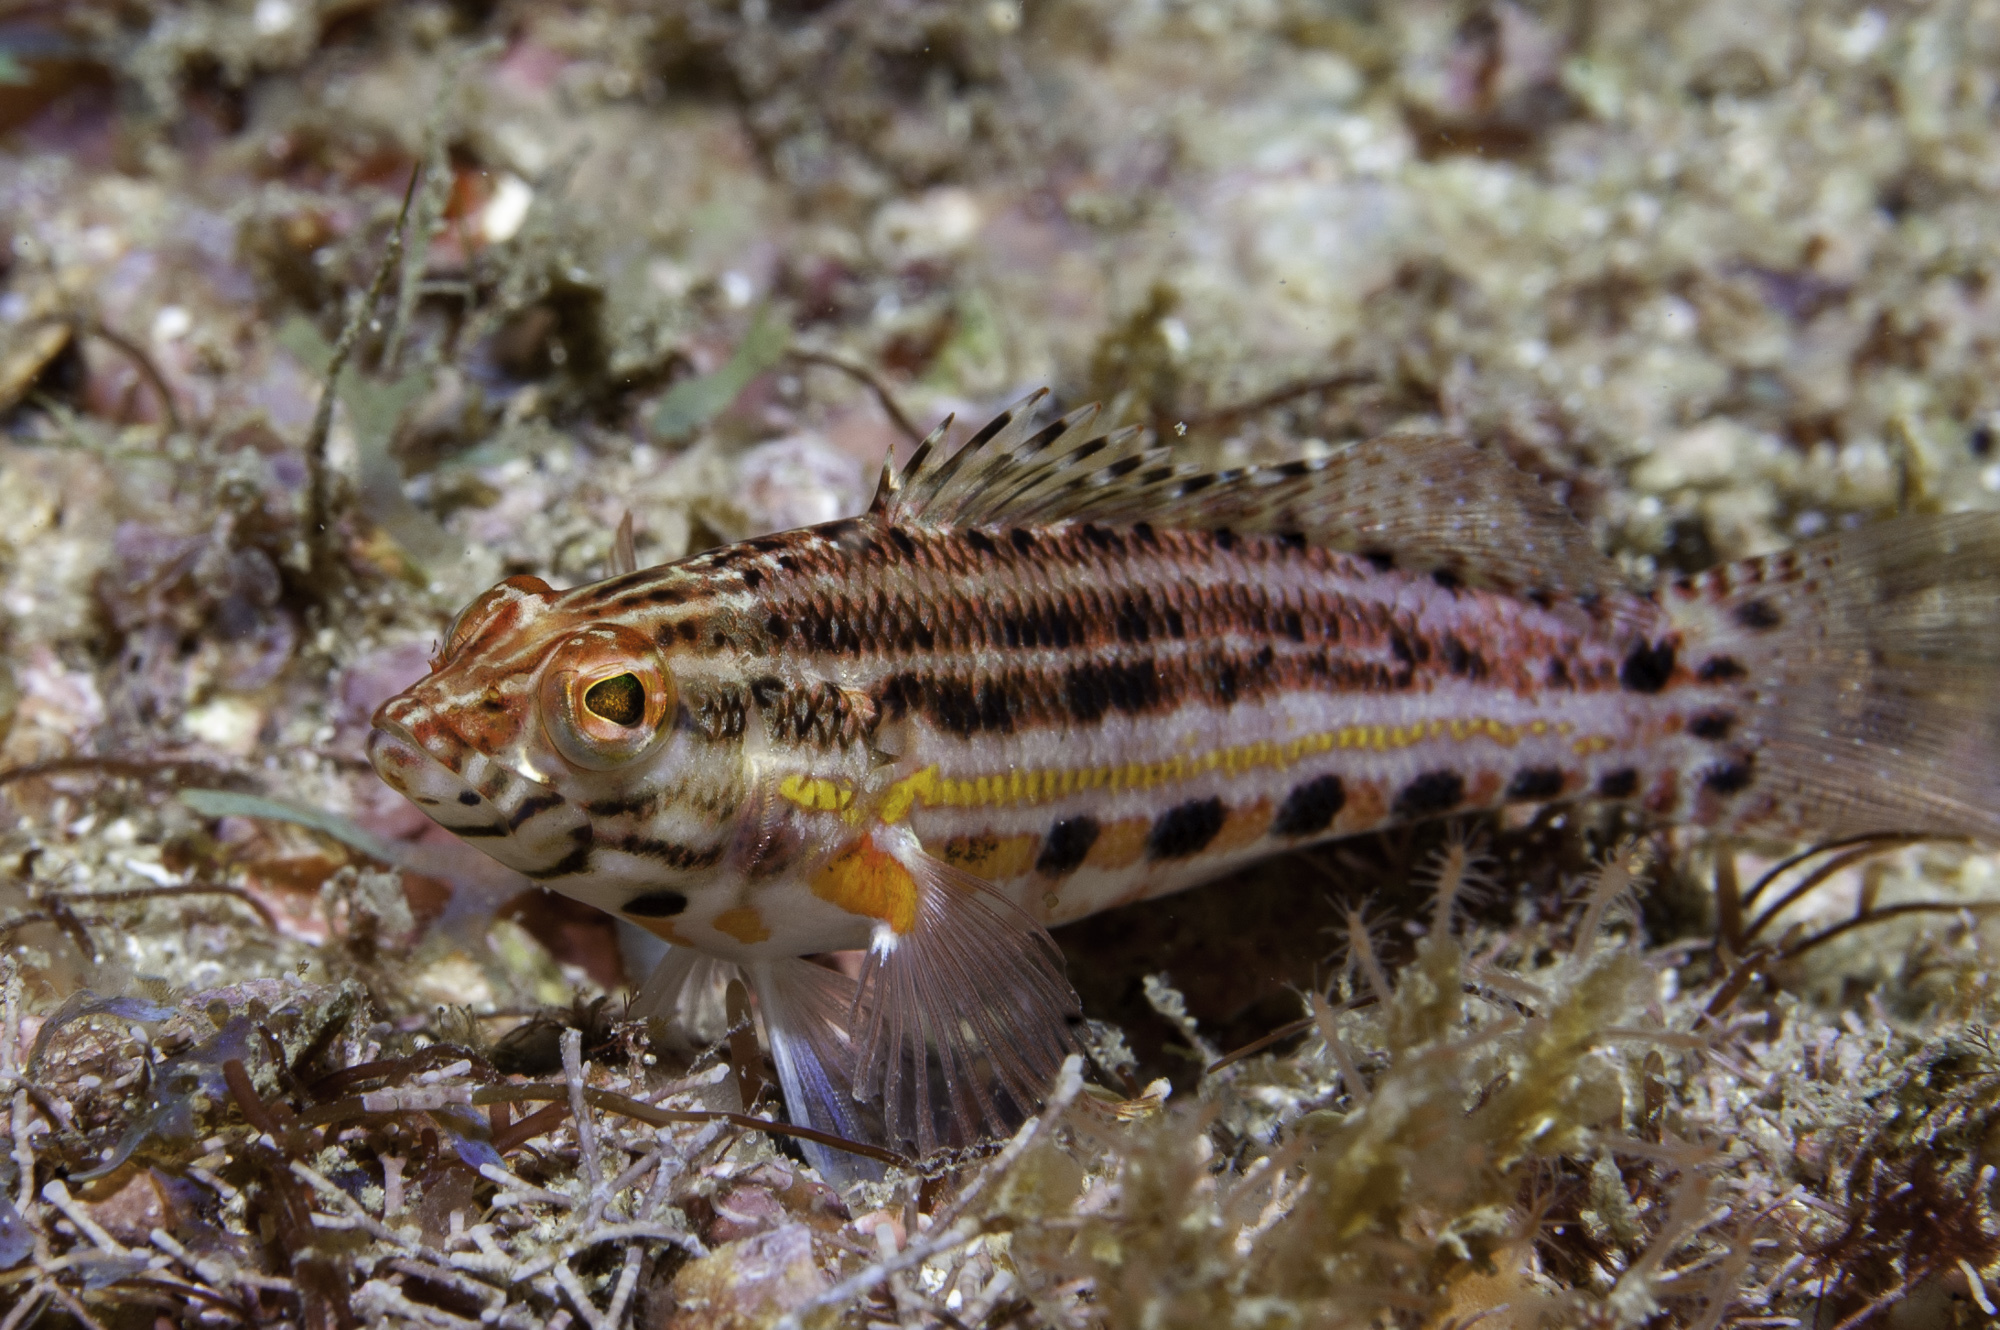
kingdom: Animalia
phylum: Chordata
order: Perciformes
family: Serranidae
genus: Serranus
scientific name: Serranus baldwini
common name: Lantern bass
